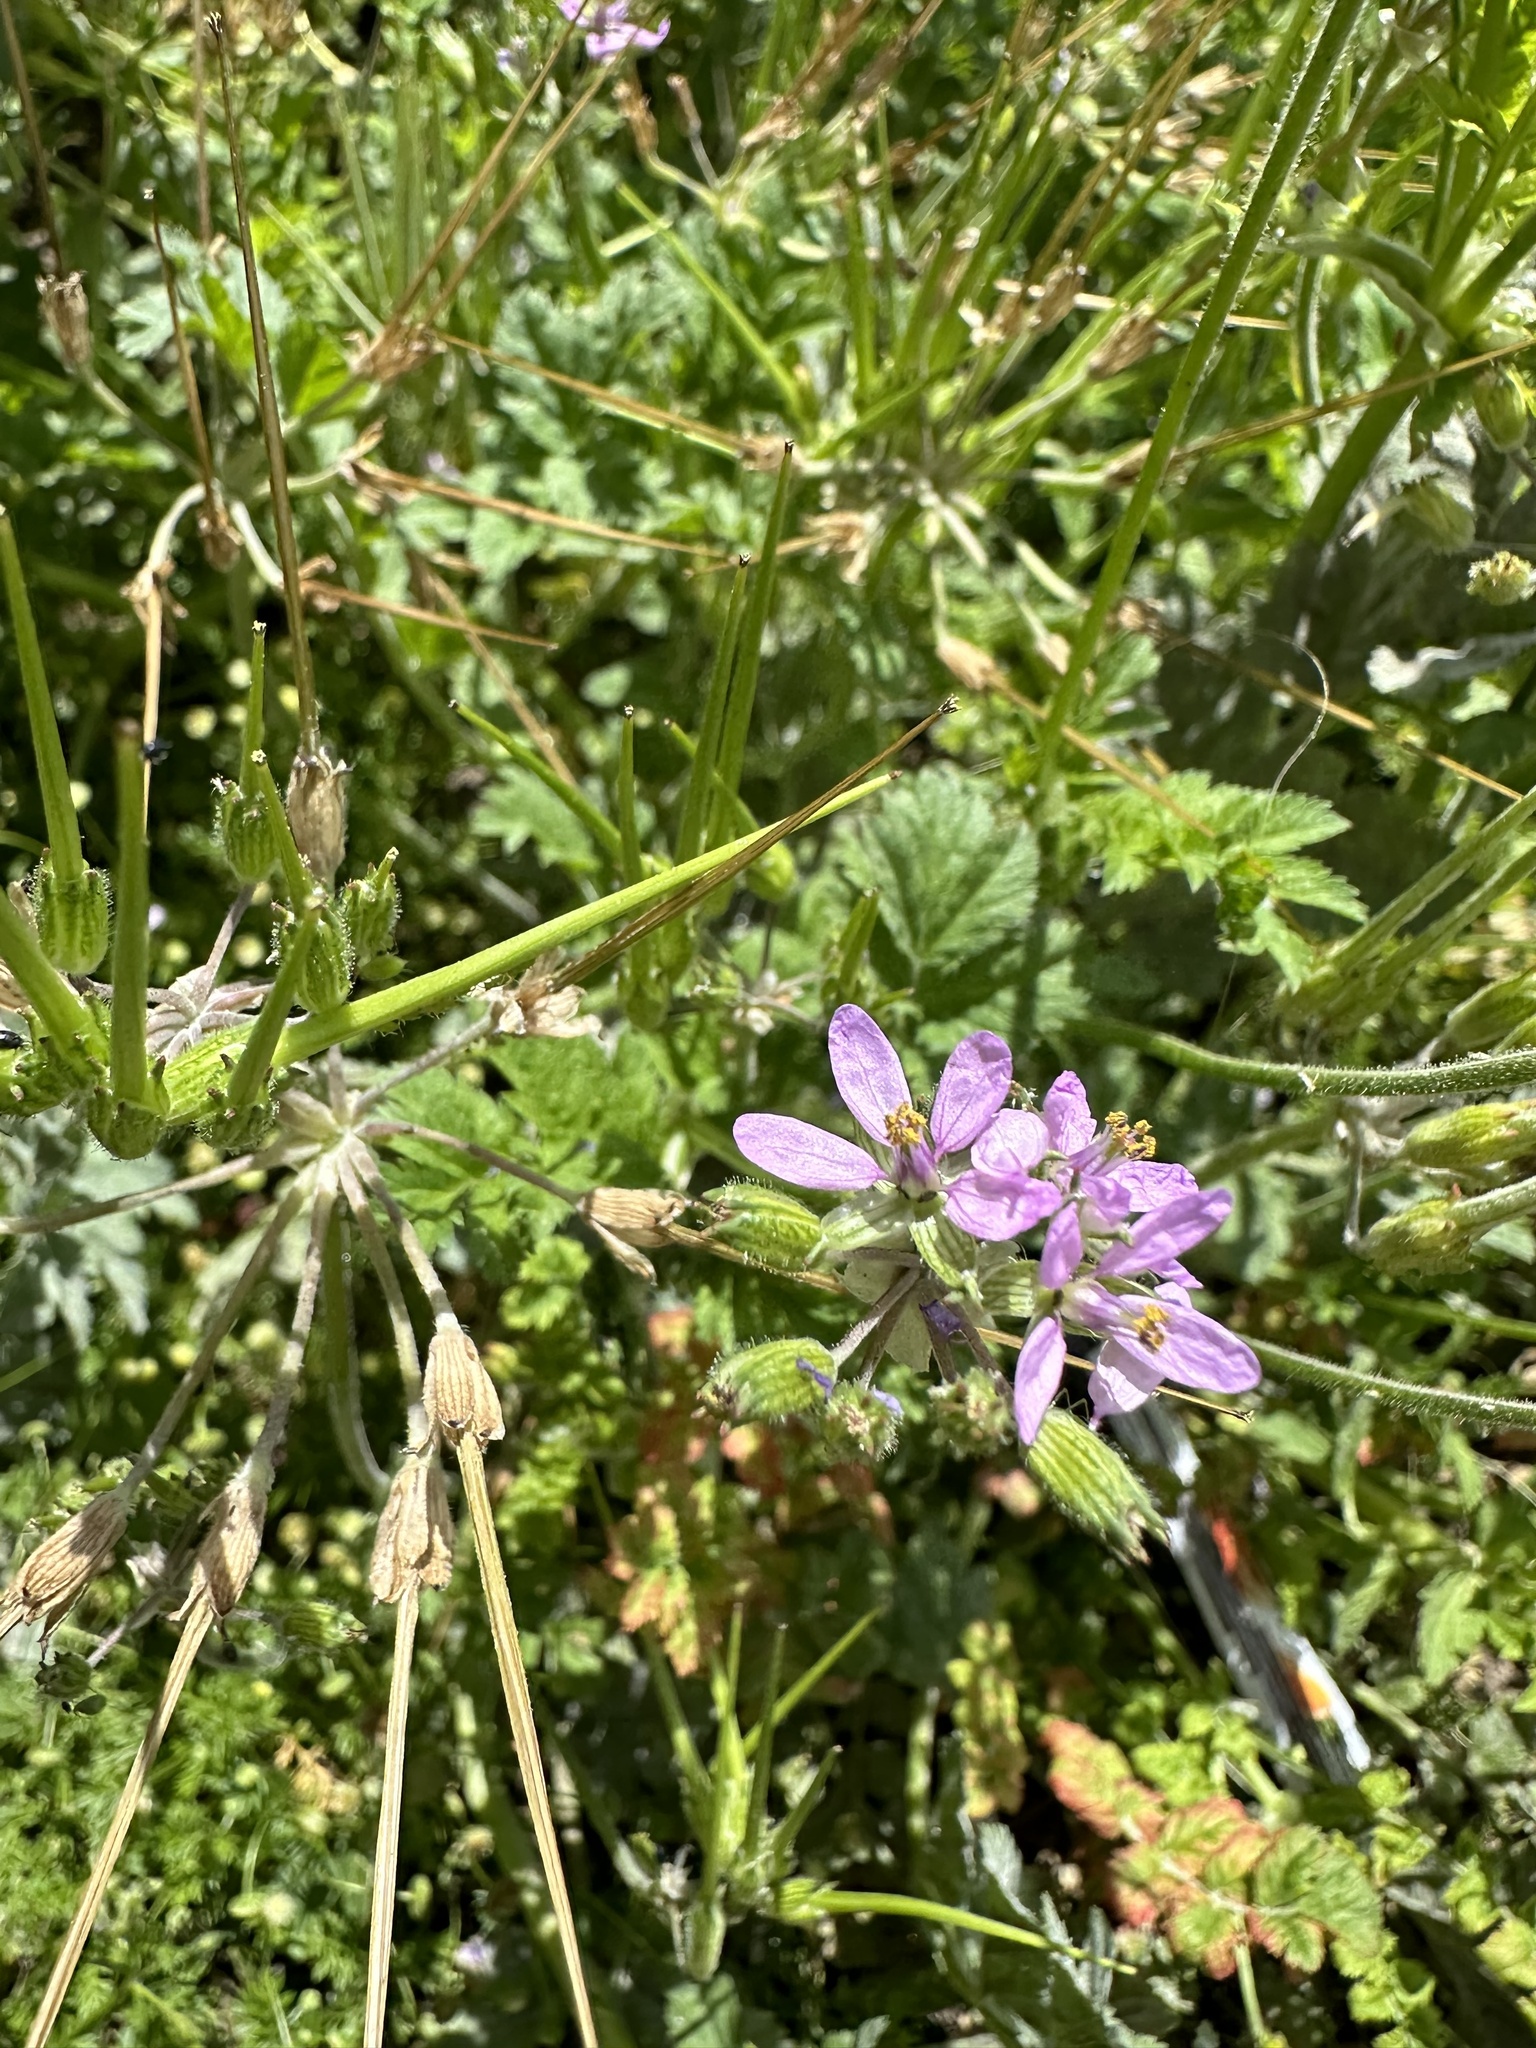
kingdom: Plantae
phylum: Tracheophyta
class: Magnoliopsida
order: Geraniales
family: Geraniaceae
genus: Erodium
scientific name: Erodium moschatum
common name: Musk stork's-bill
